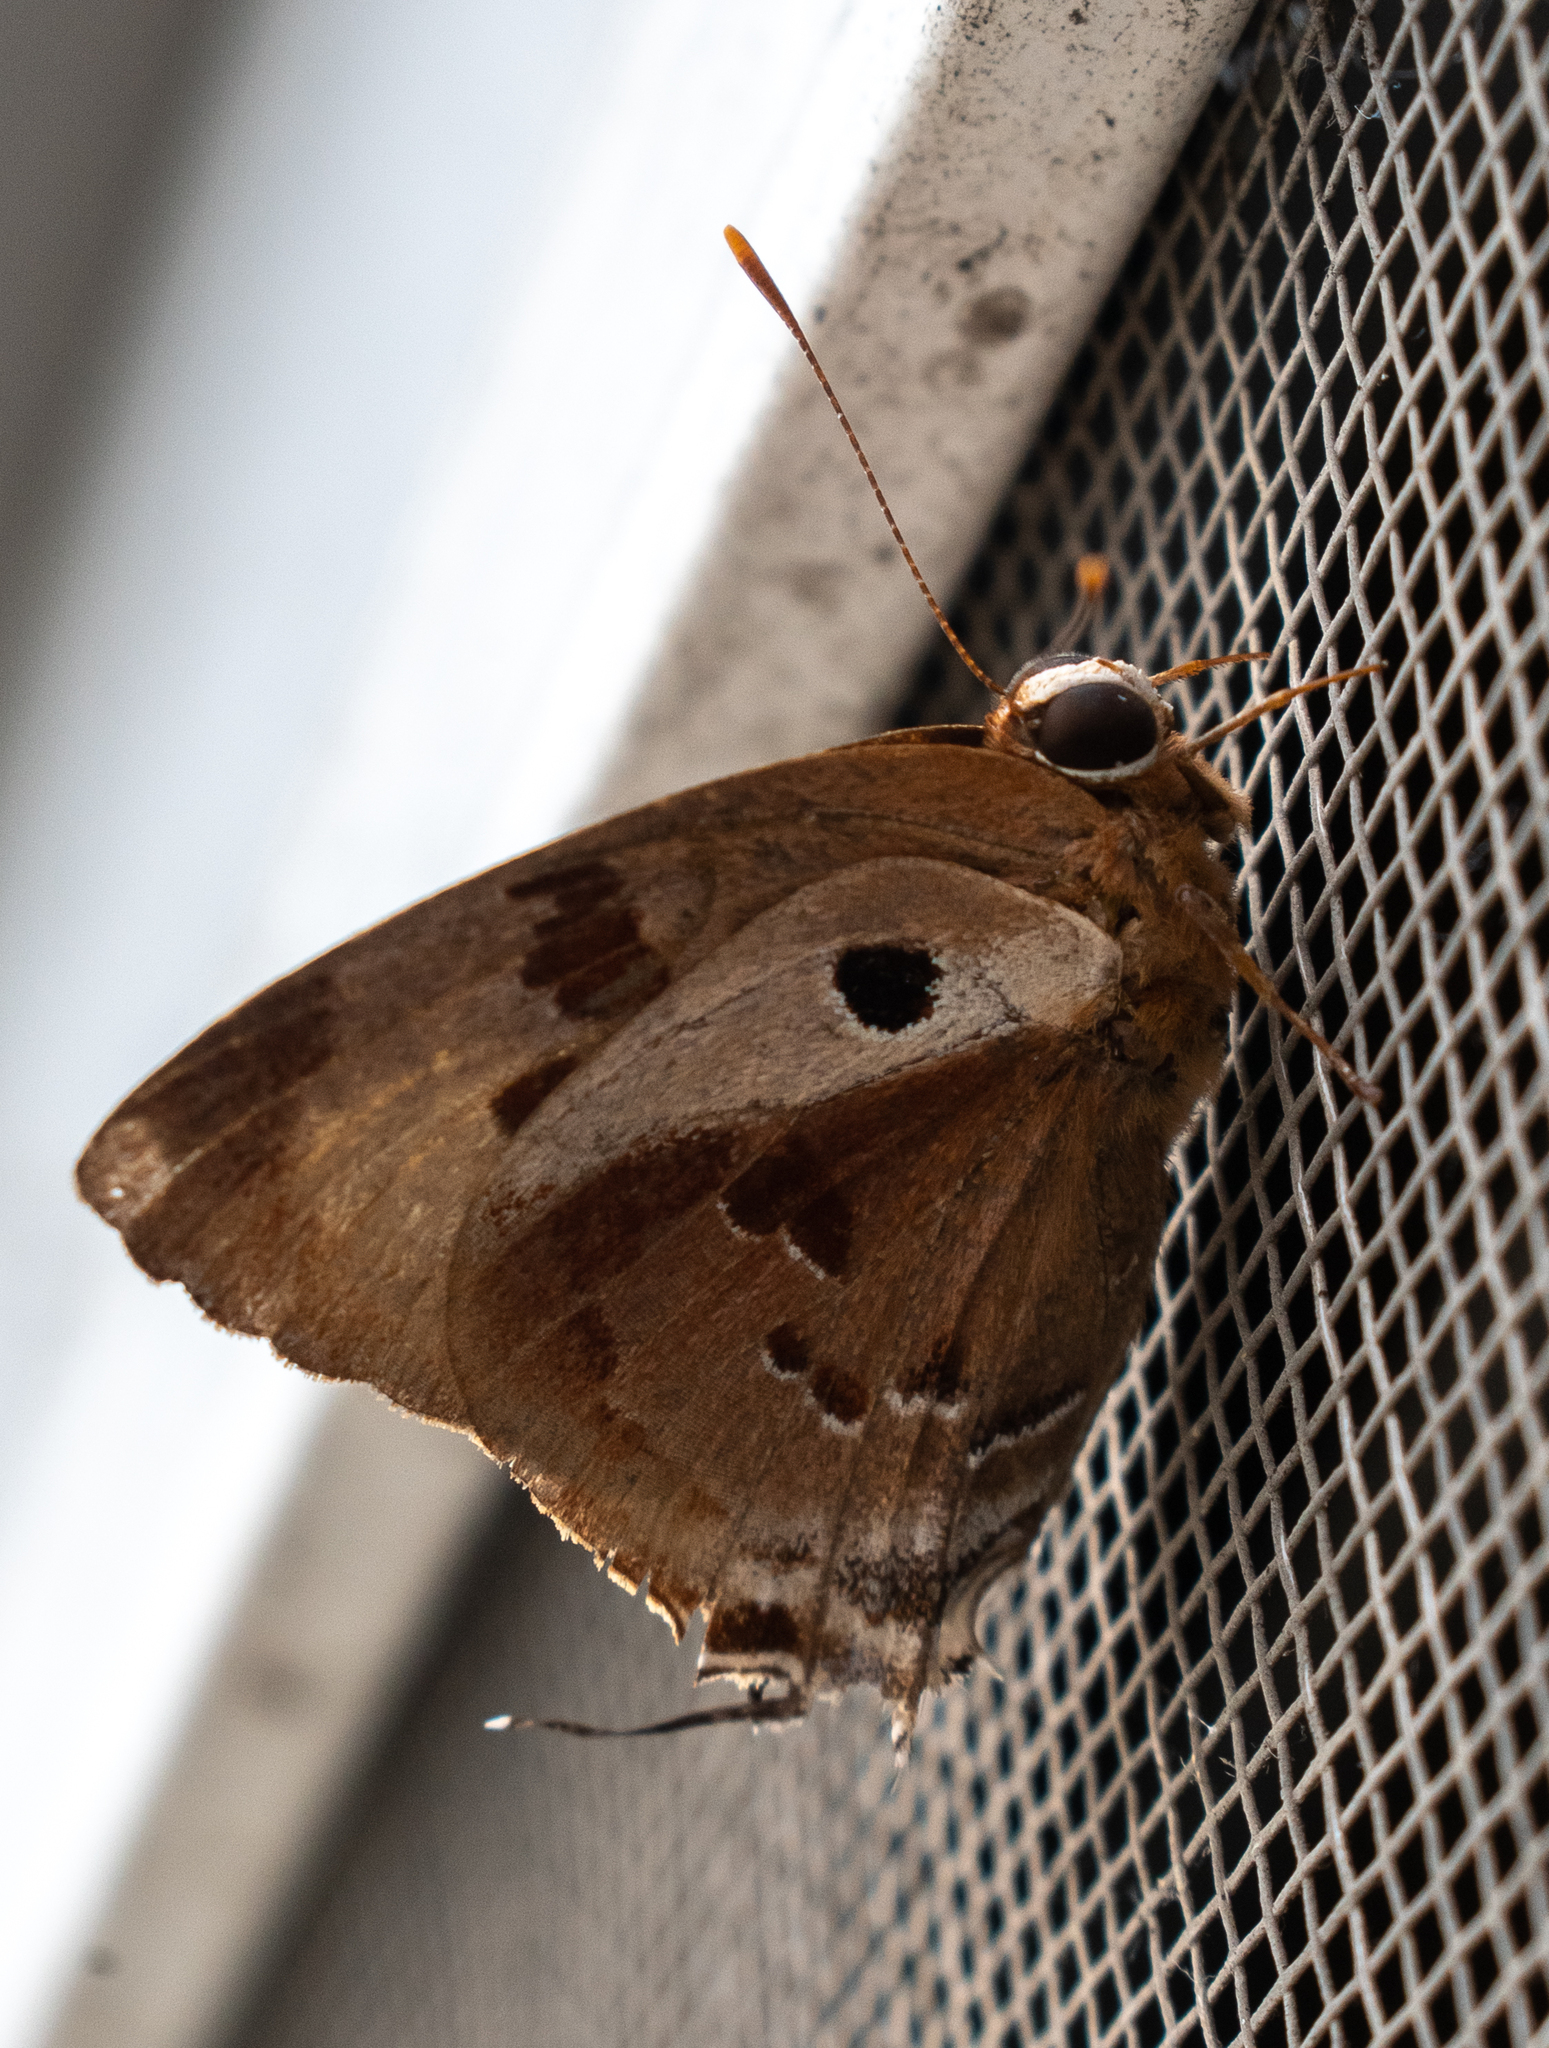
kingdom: Animalia
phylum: Arthropoda
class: Insecta
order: Lepidoptera
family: Lycaenidae
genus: Thecla
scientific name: Thecla rustan
